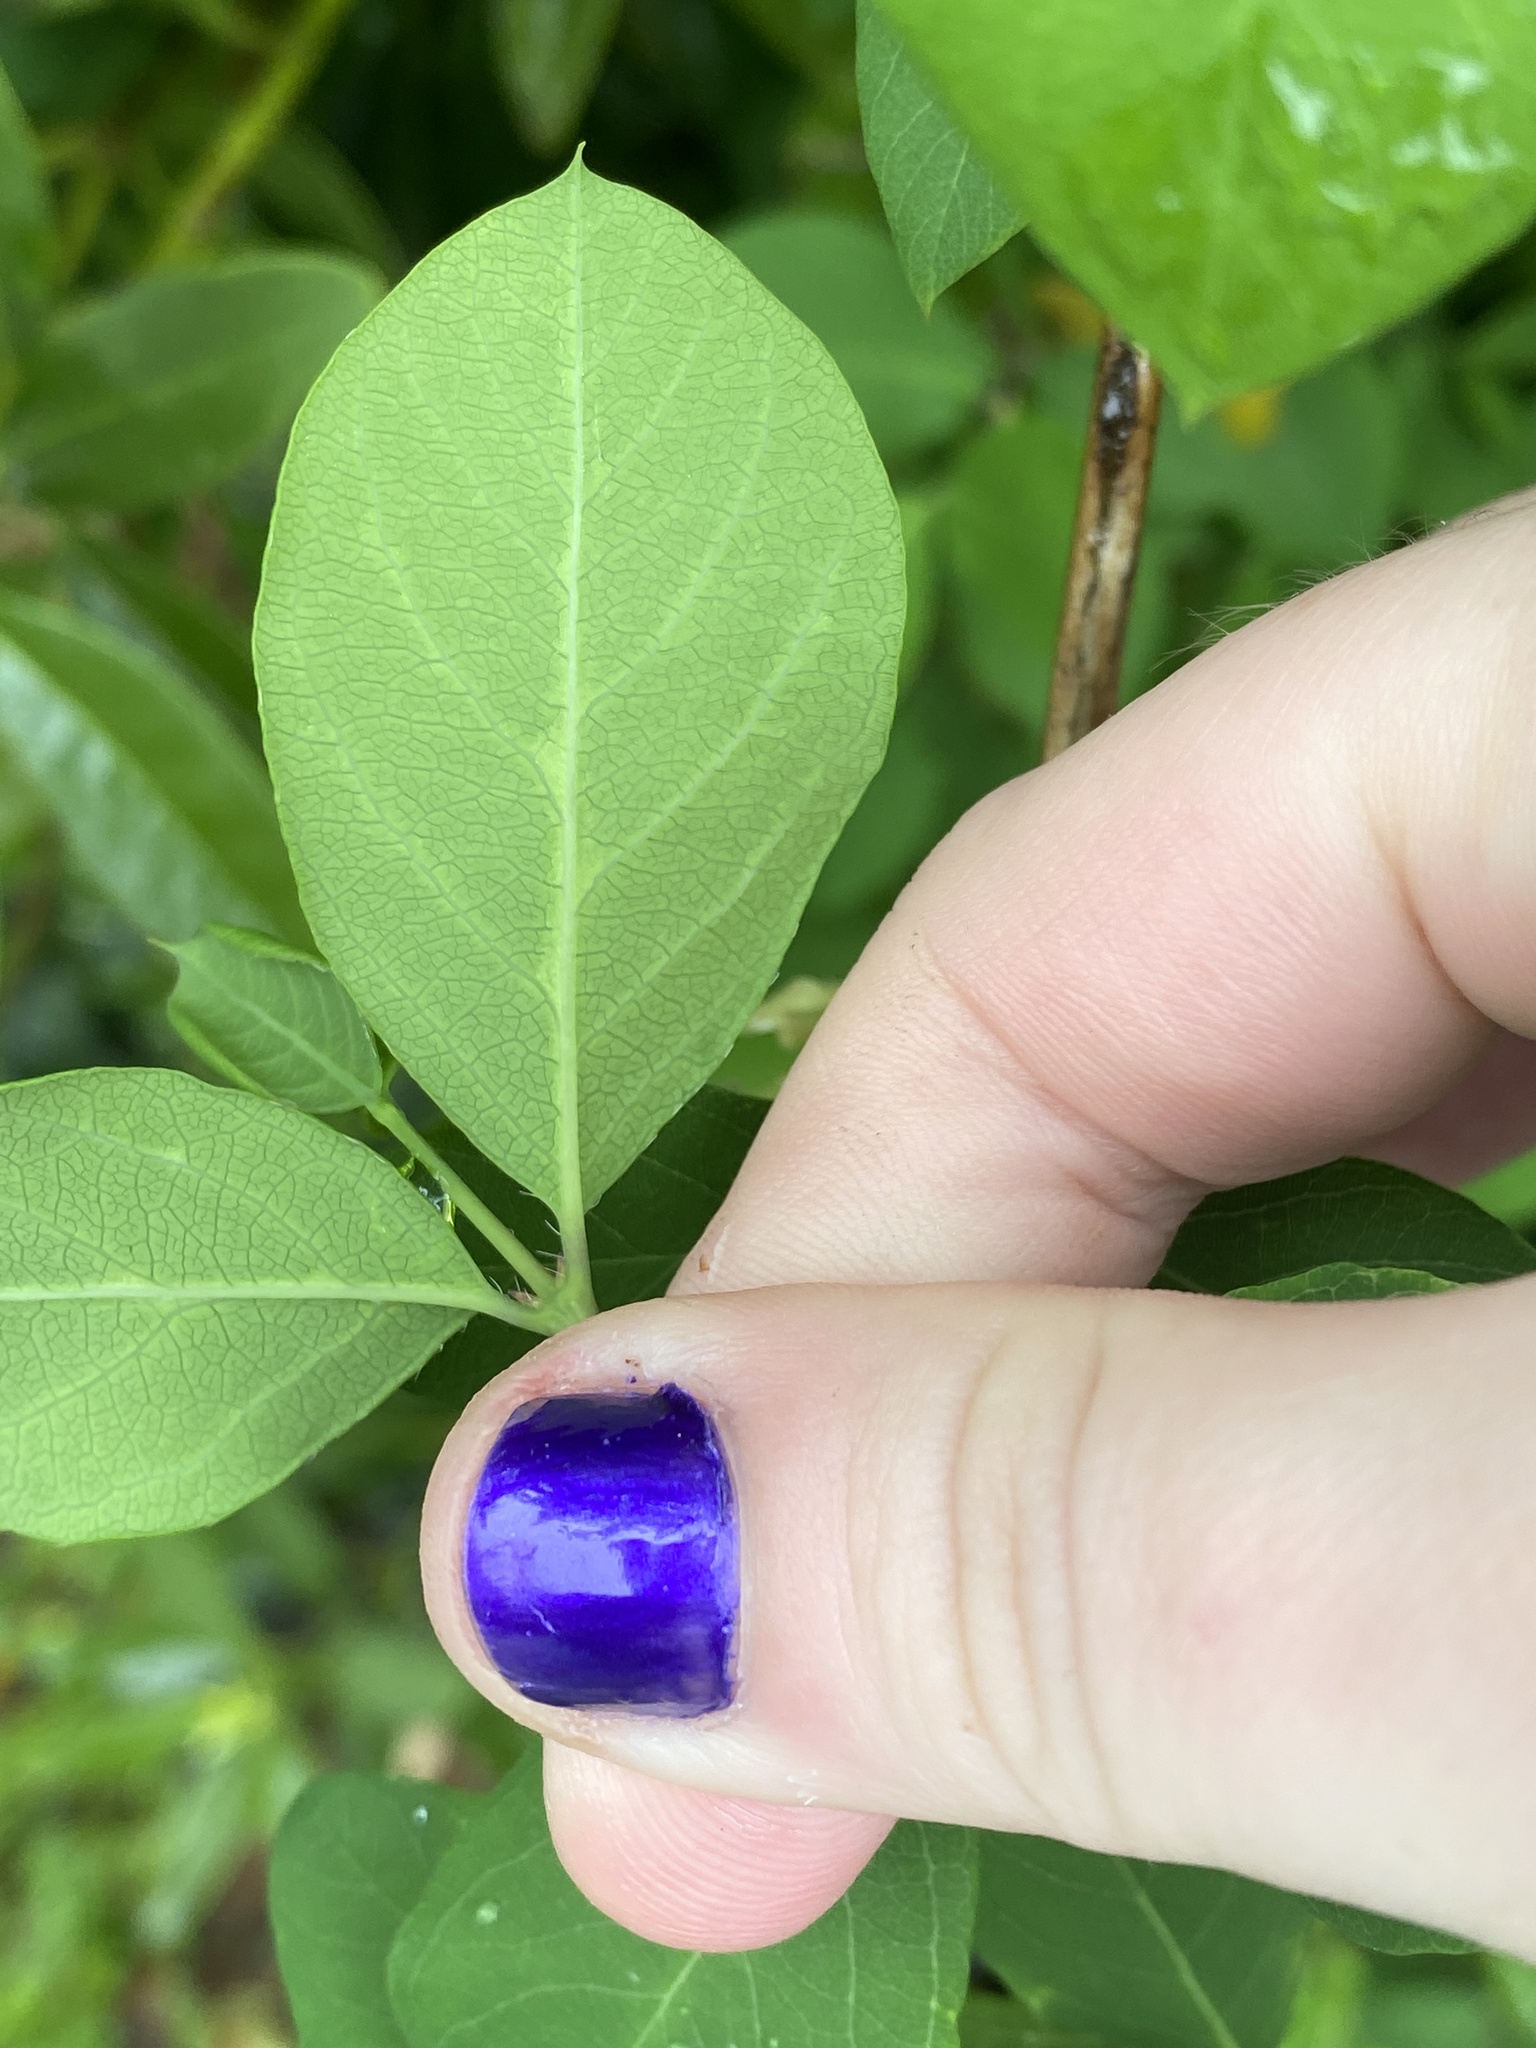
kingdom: Plantae
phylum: Tracheophyta
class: Magnoliopsida
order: Dipsacales
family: Caprifoliaceae
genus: Lonicera
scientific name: Lonicera fragrantissima
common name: Fragrant honeysuckle
